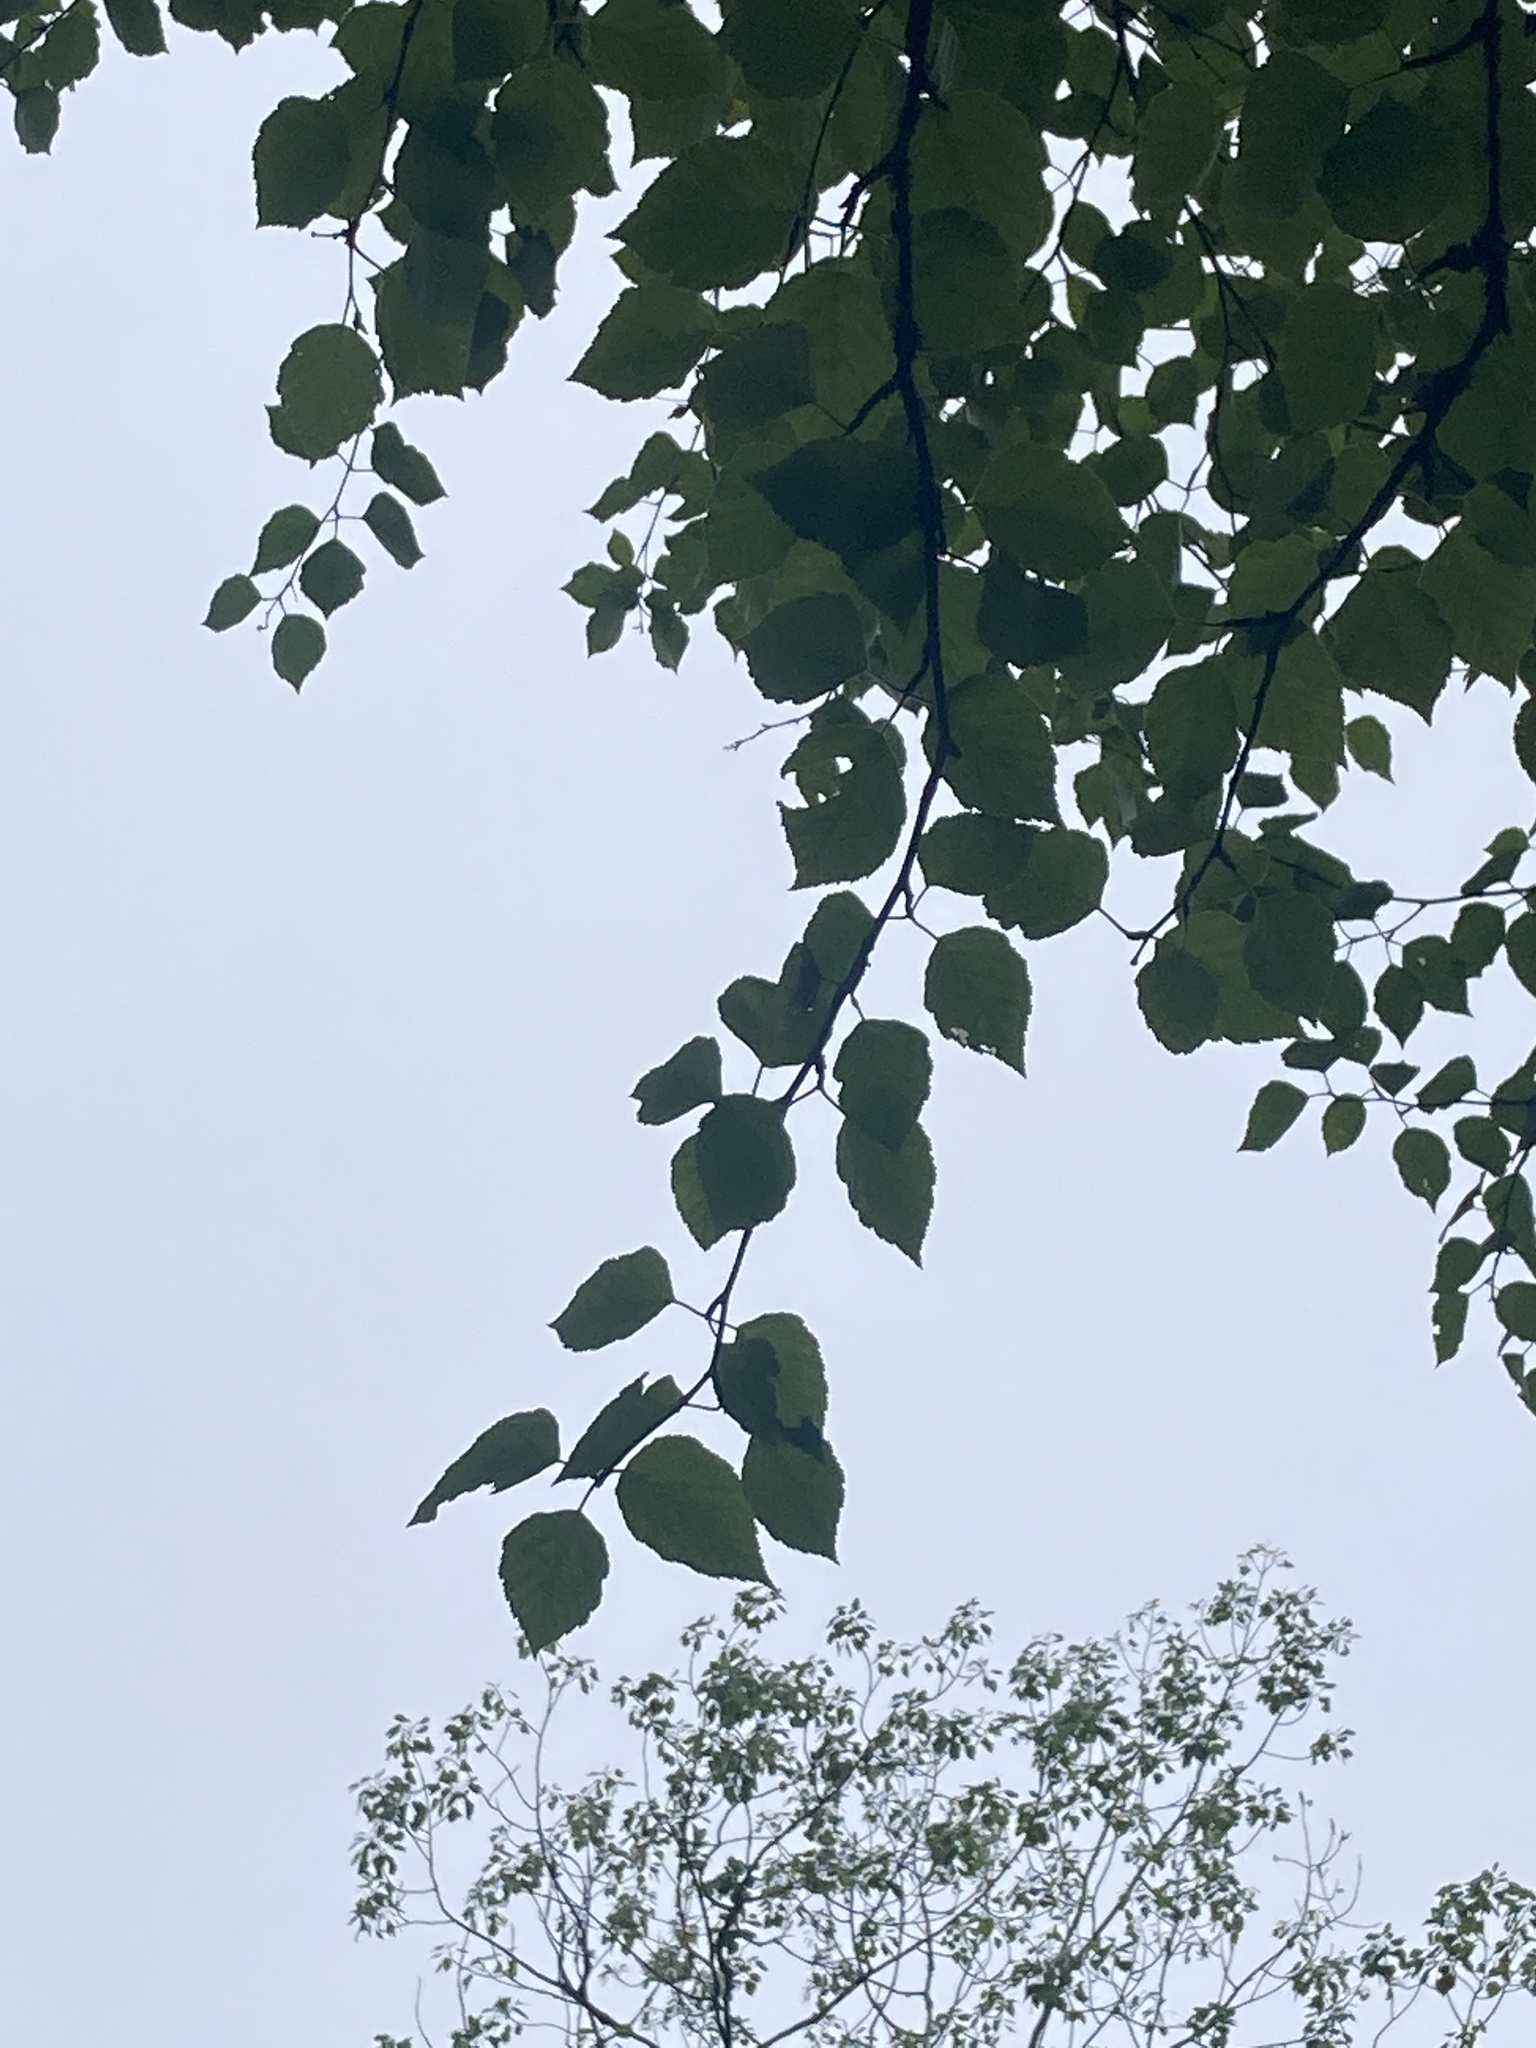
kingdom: Plantae
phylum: Tracheophyta
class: Magnoliopsida
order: Fagales
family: Betulaceae
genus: Betula
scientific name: Betula papyrifera
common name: Paper birch
